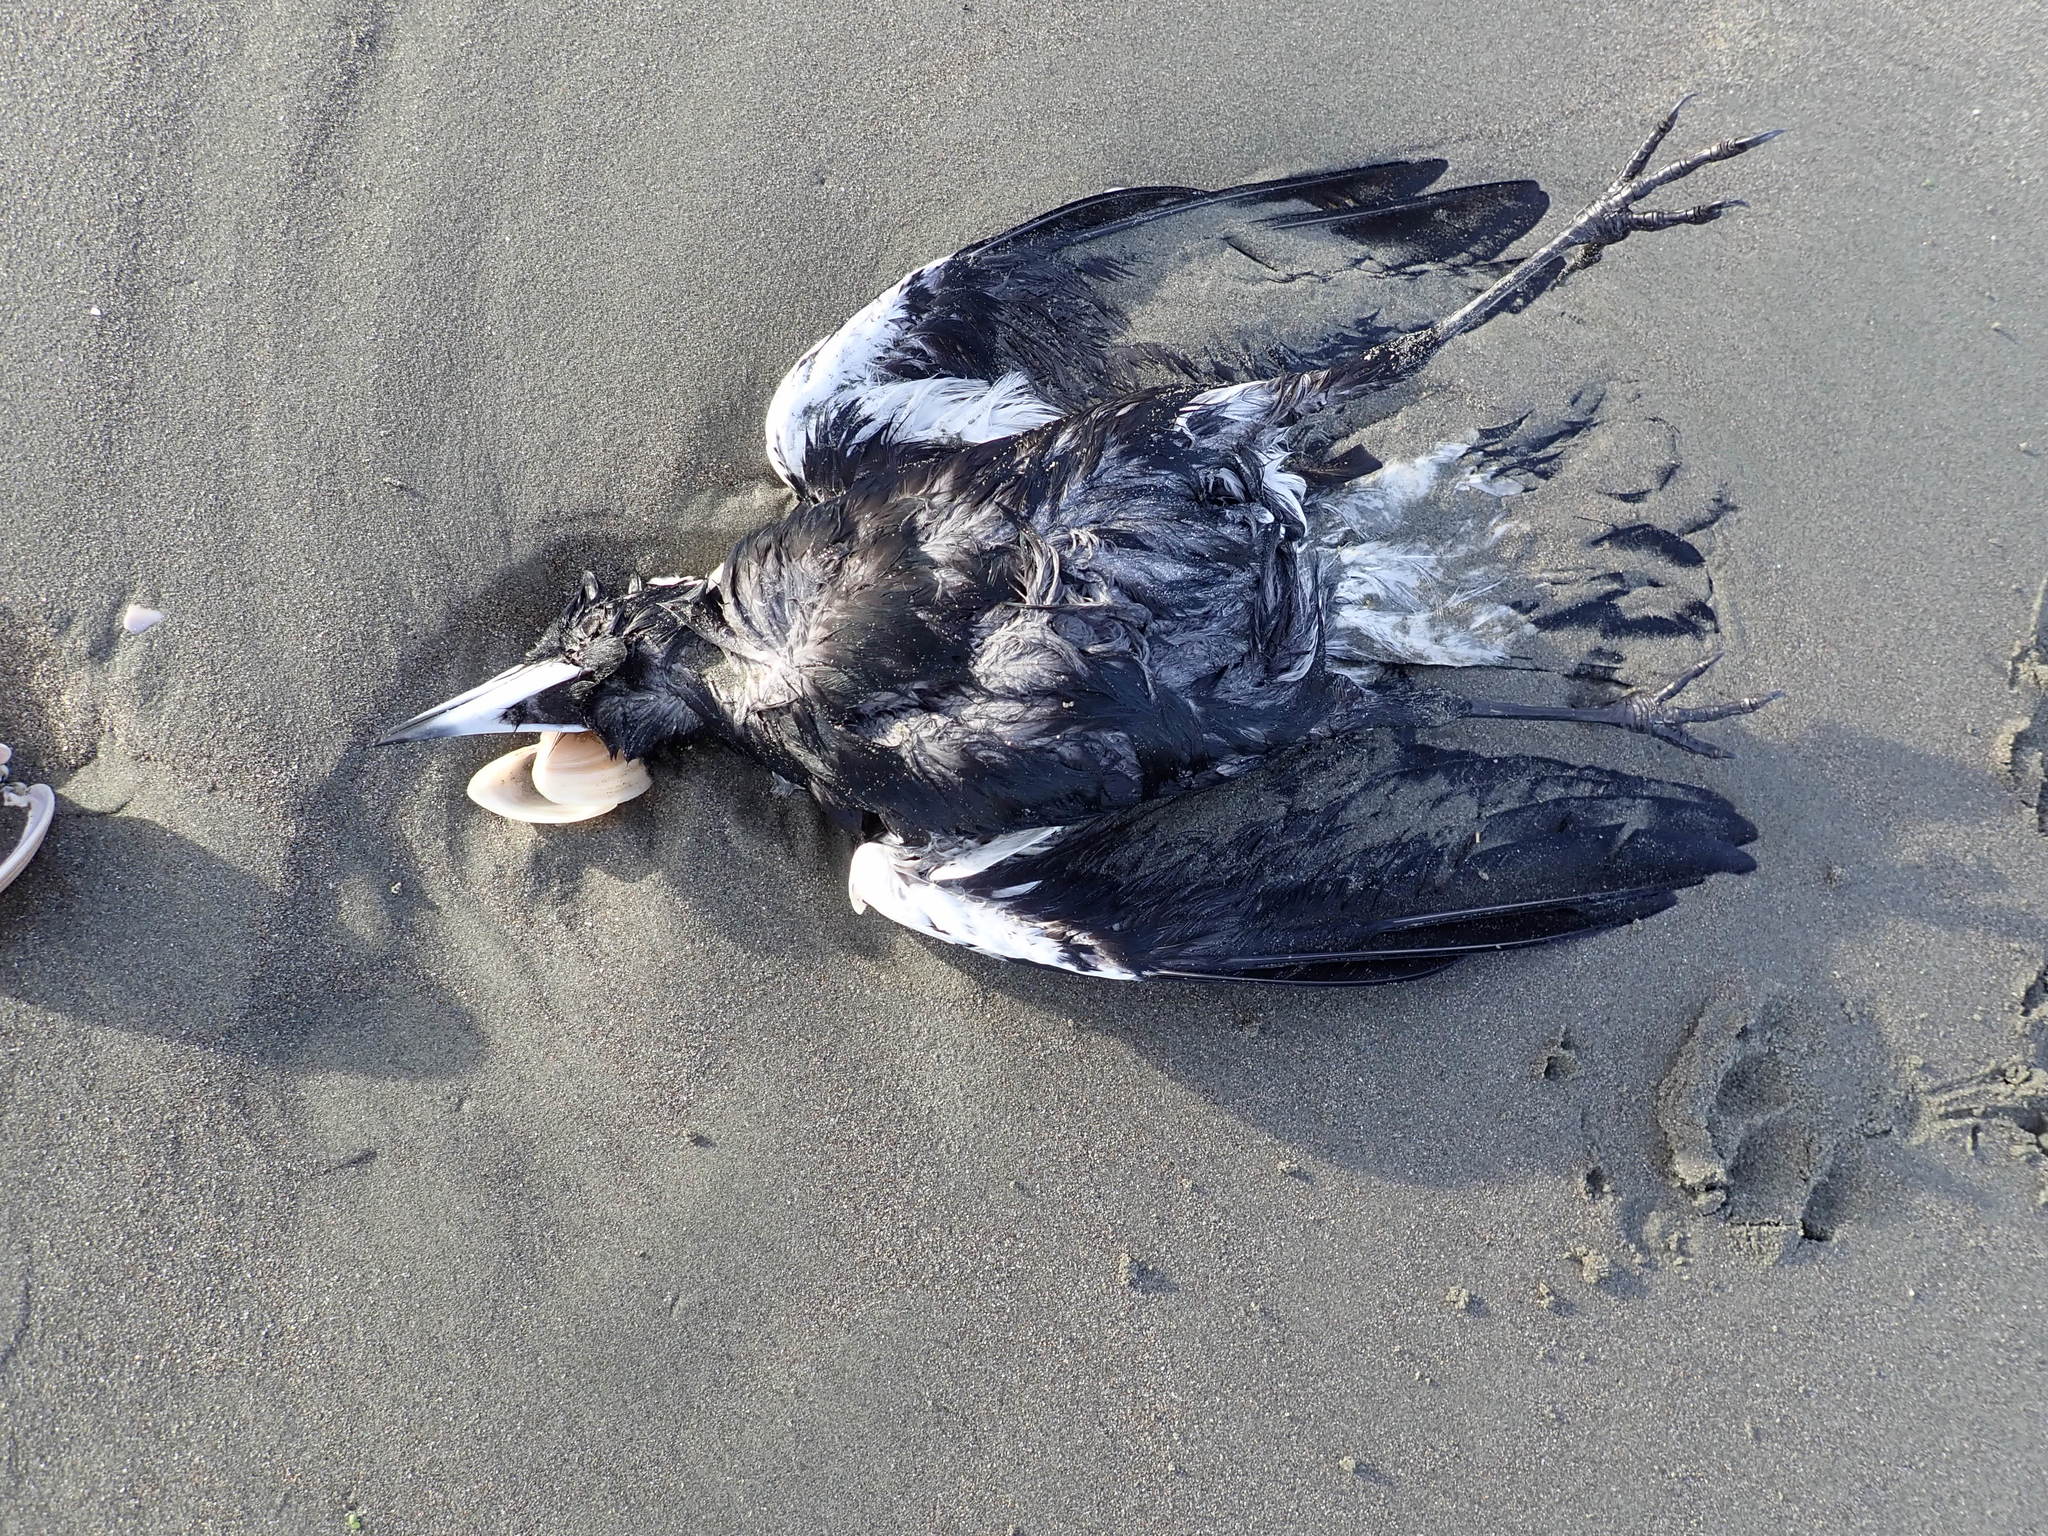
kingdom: Animalia
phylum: Chordata
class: Aves
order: Passeriformes
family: Cracticidae
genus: Gymnorhina
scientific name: Gymnorhina tibicen
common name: Australian magpie
